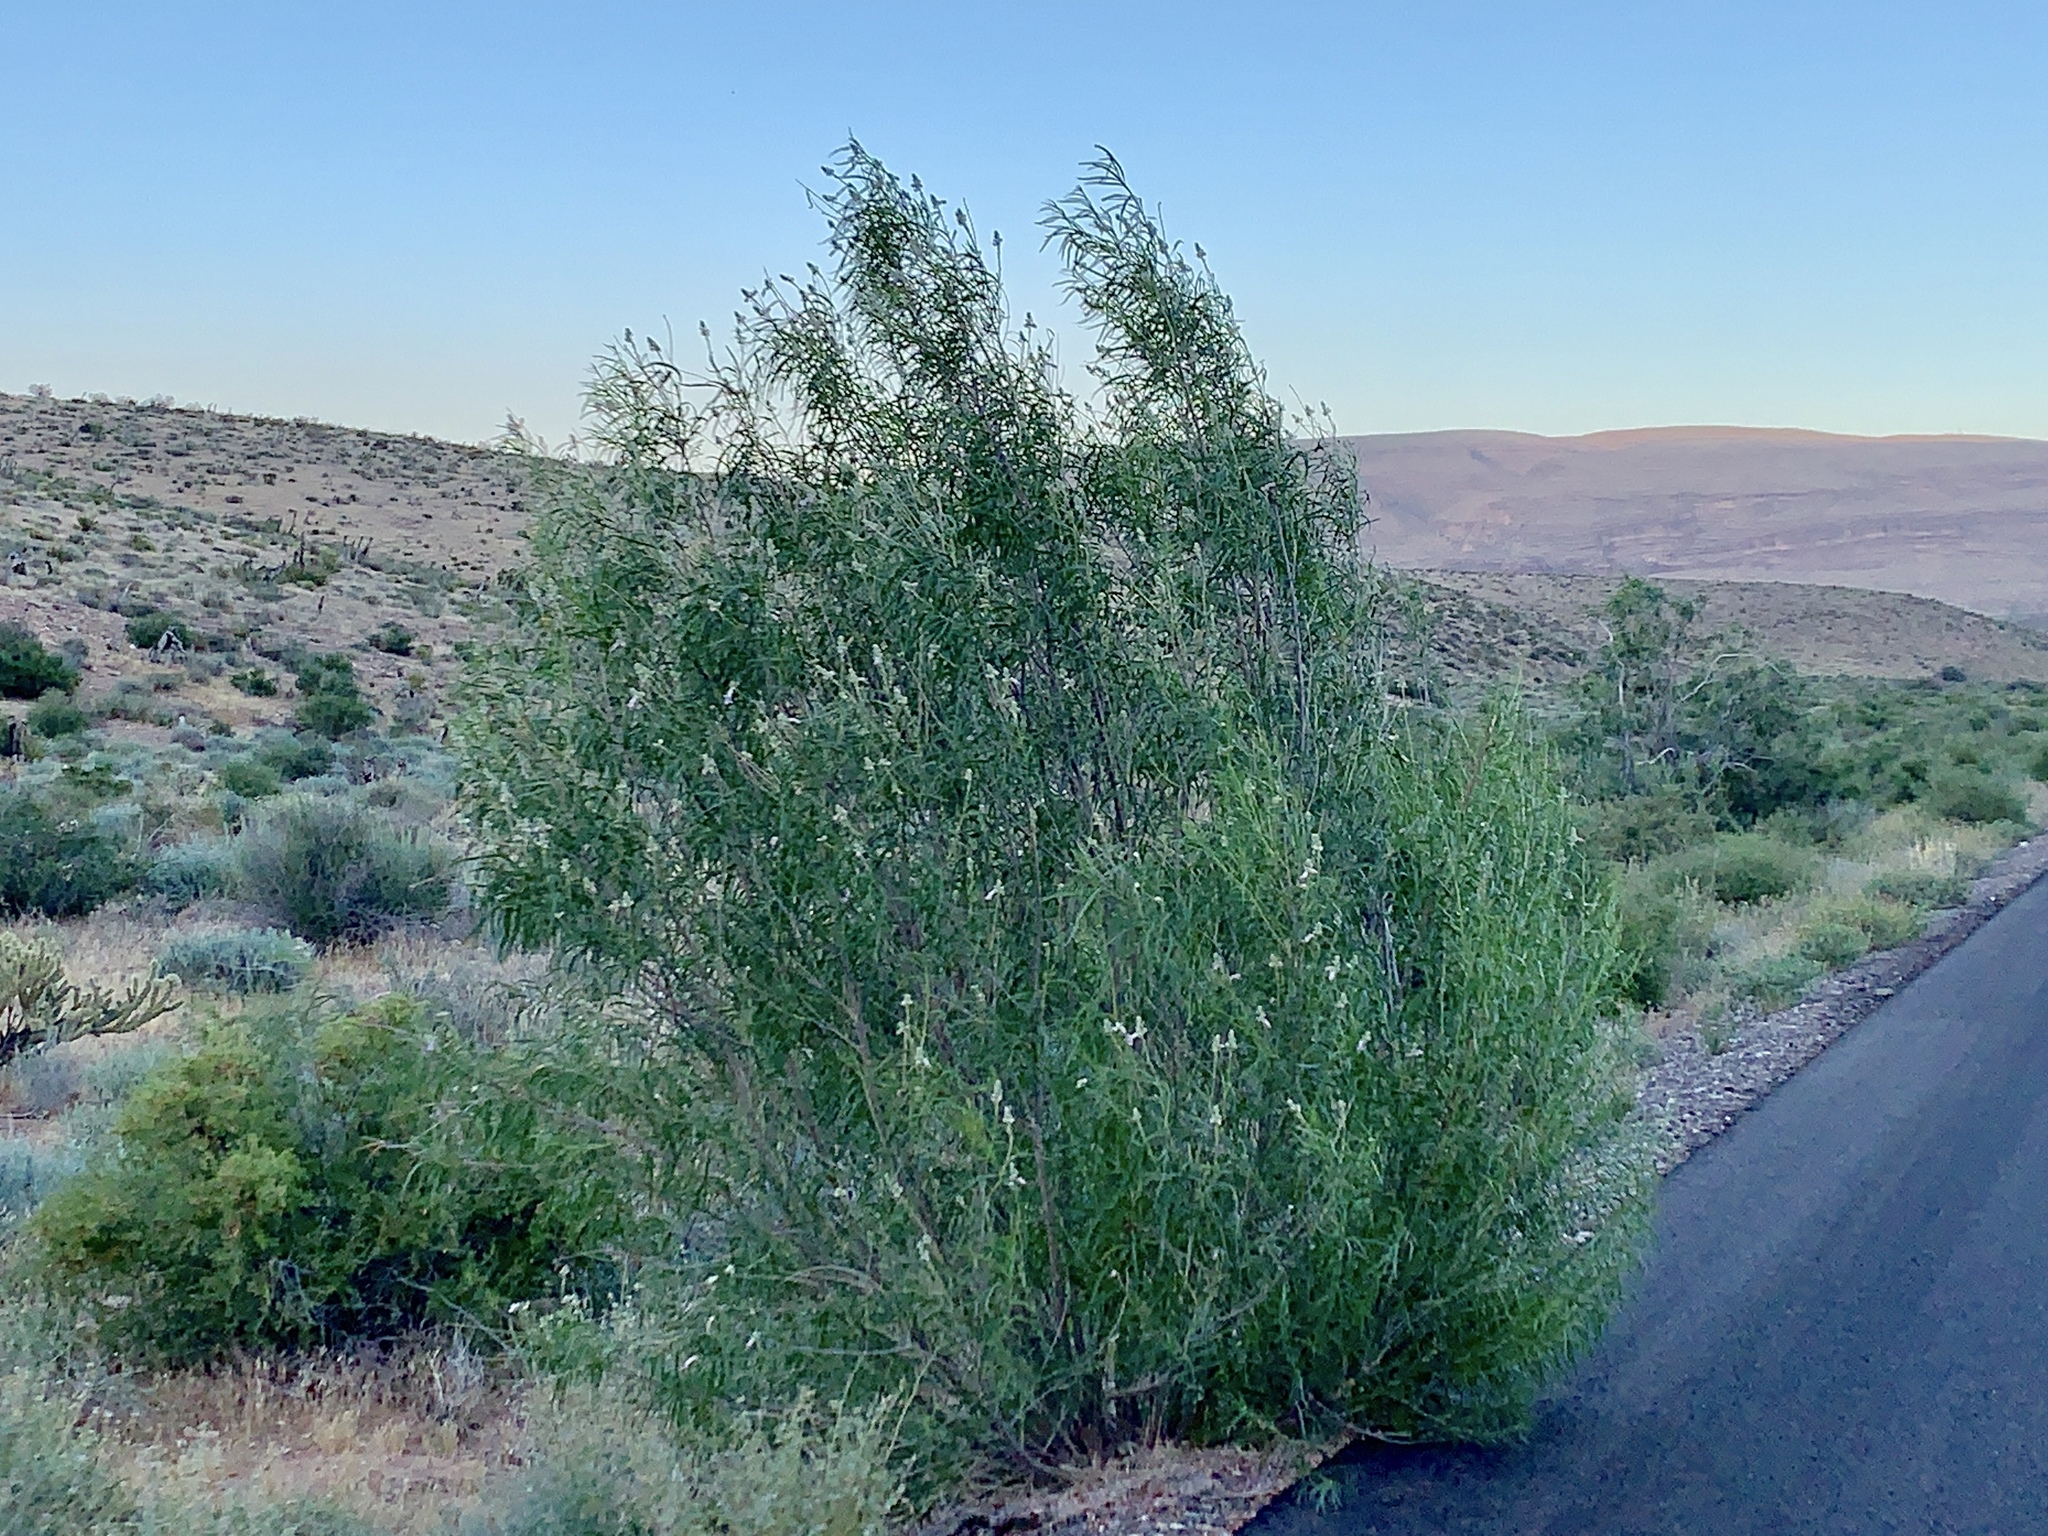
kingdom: Plantae
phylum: Tracheophyta
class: Magnoliopsida
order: Lamiales
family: Bignoniaceae
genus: Chilopsis
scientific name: Chilopsis linearis
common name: Desert-willow
